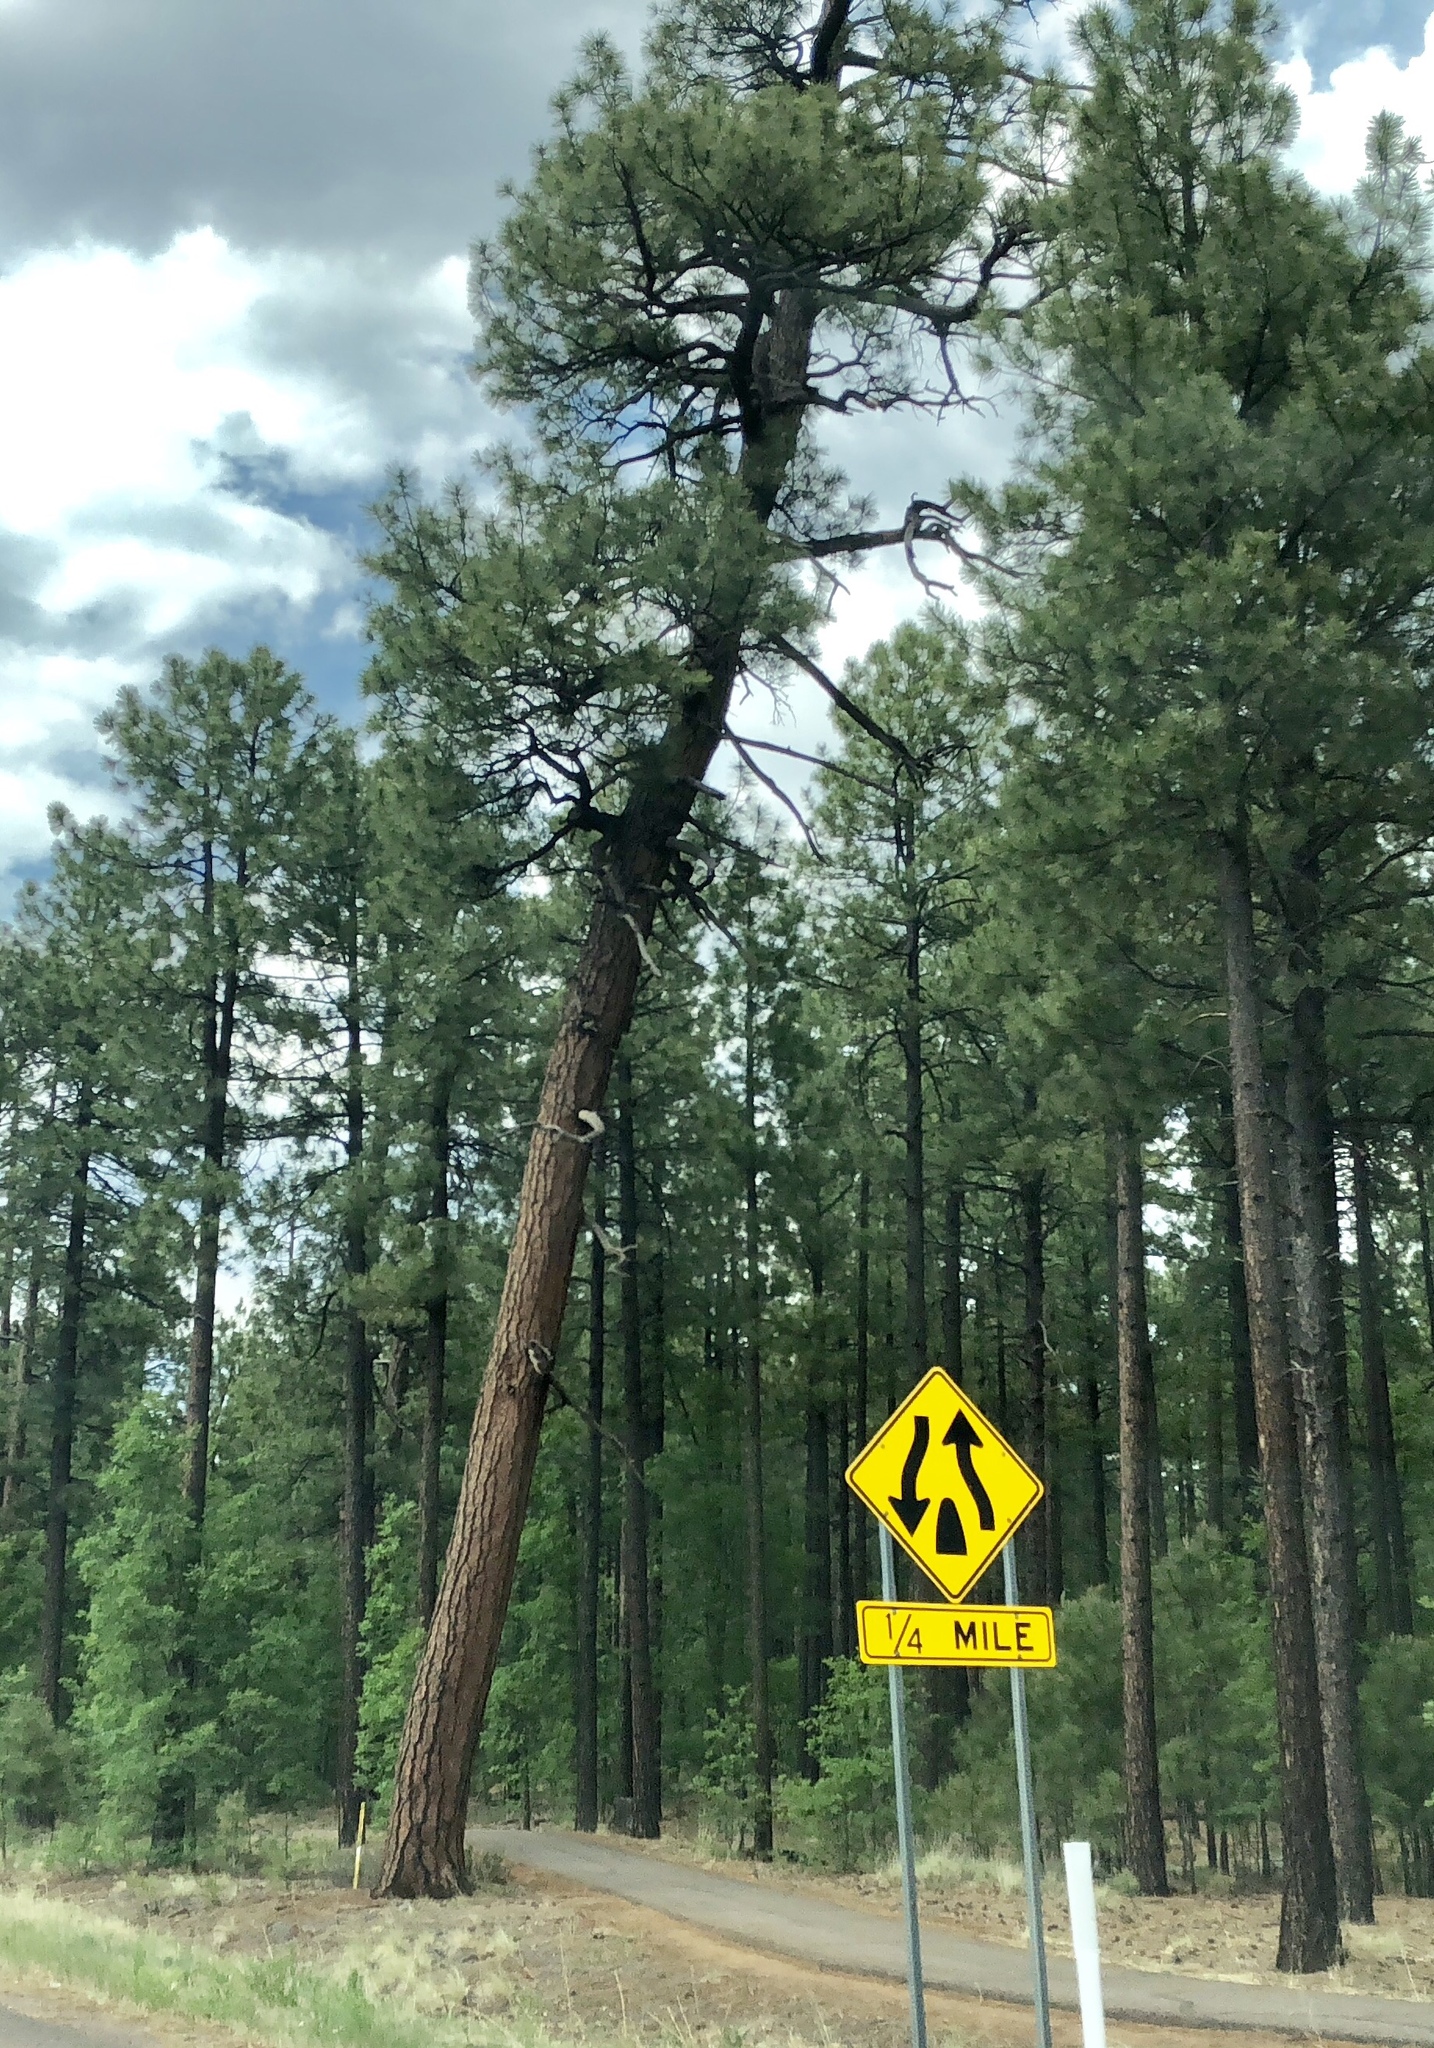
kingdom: Plantae
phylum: Tracheophyta
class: Pinopsida
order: Pinales
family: Pinaceae
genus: Pinus
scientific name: Pinus ponderosa
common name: Western yellow-pine
